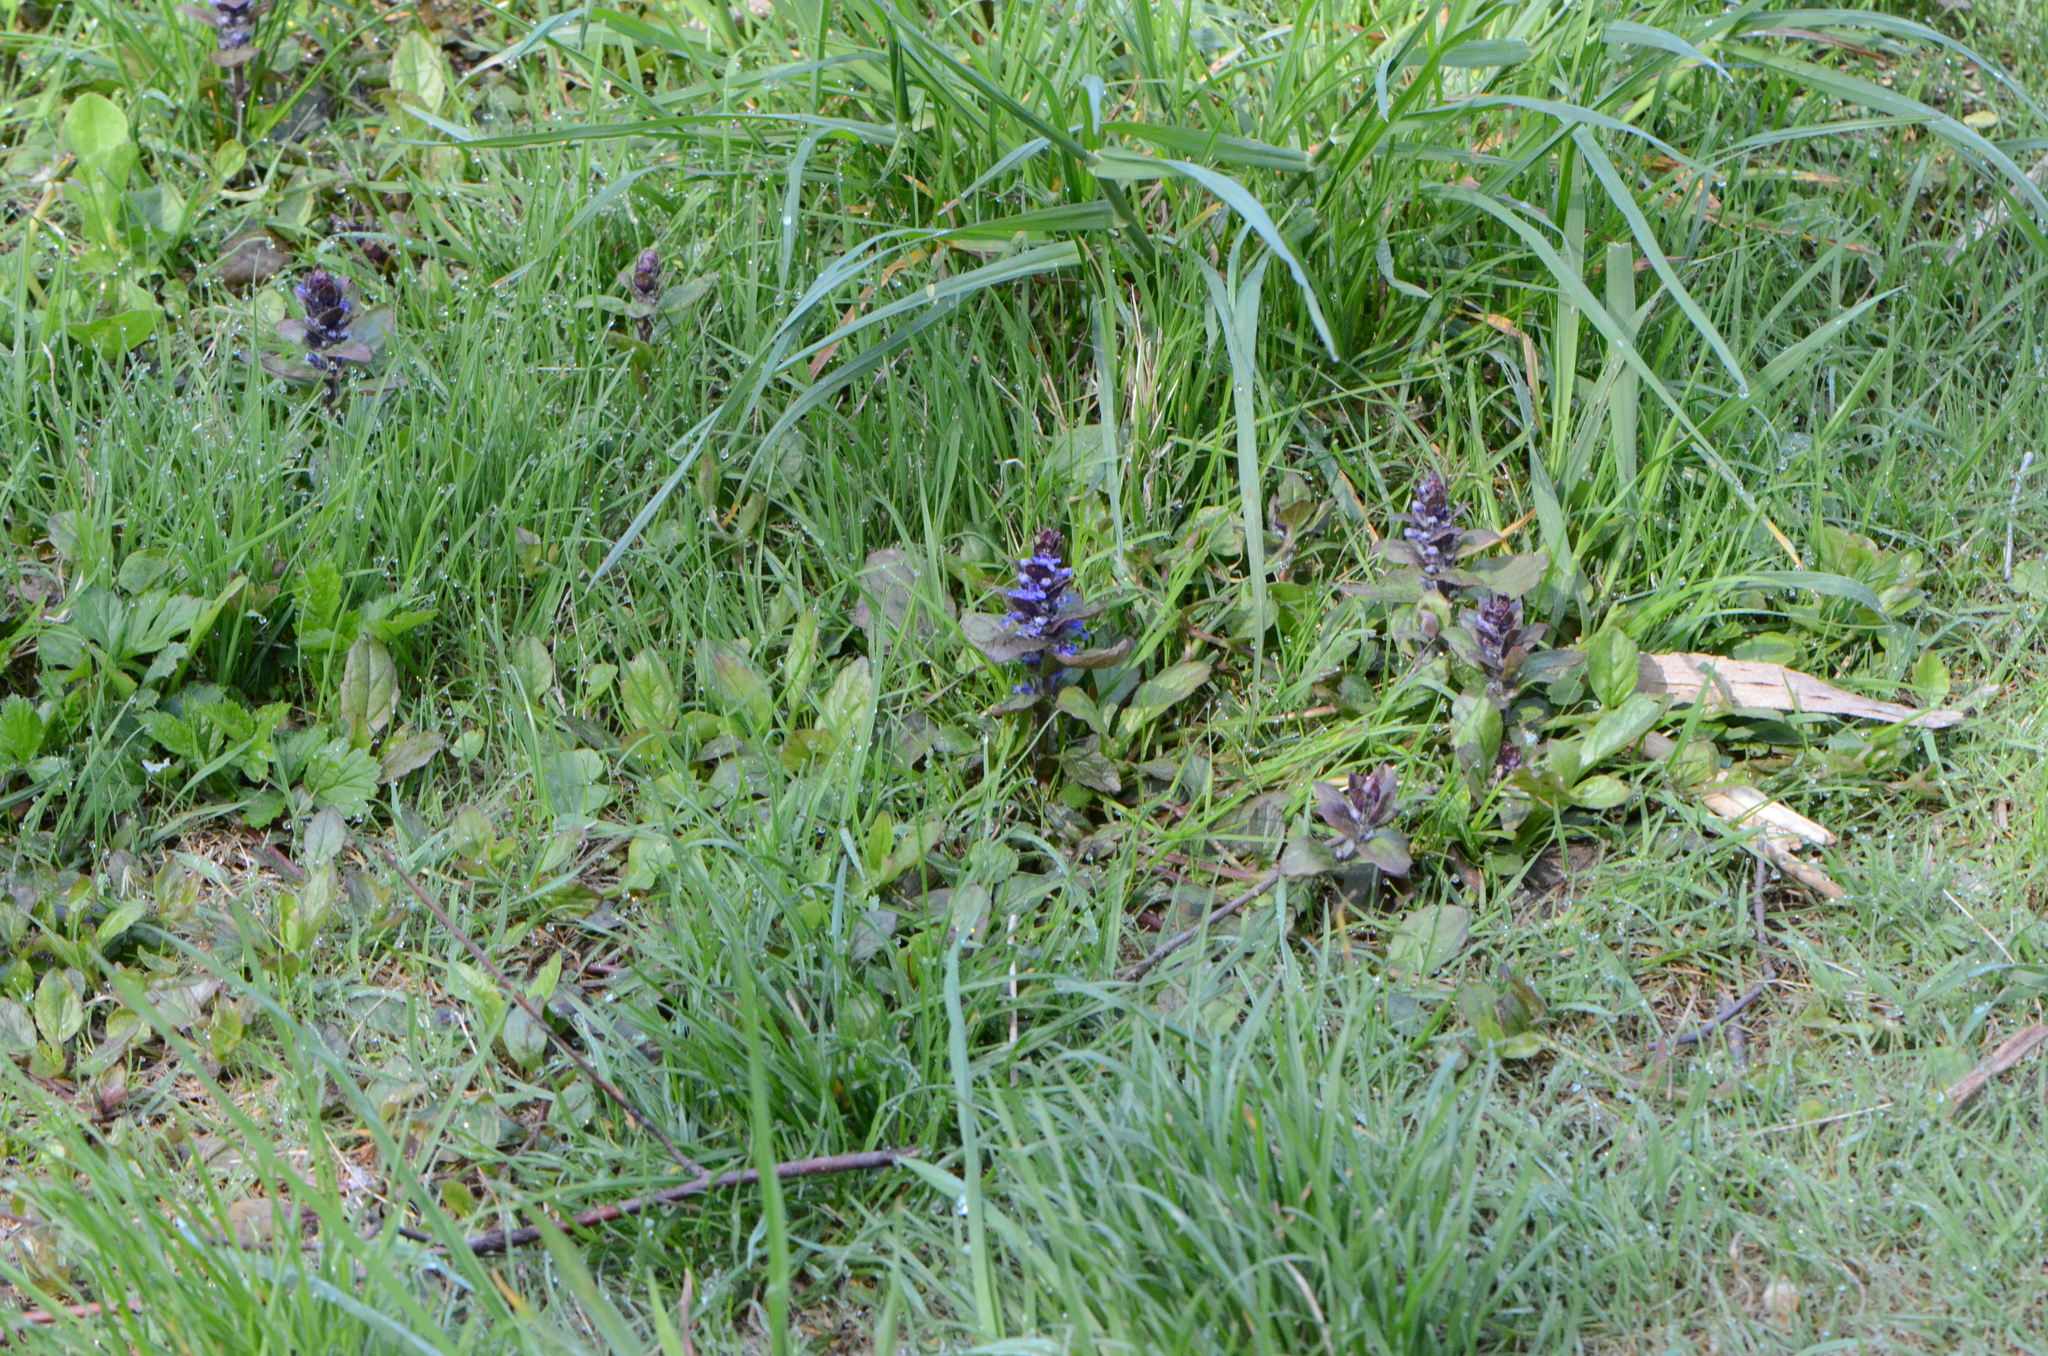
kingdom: Plantae
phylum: Tracheophyta
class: Magnoliopsida
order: Lamiales
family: Lamiaceae
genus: Ajuga
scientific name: Ajuga reptans
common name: Bugle
